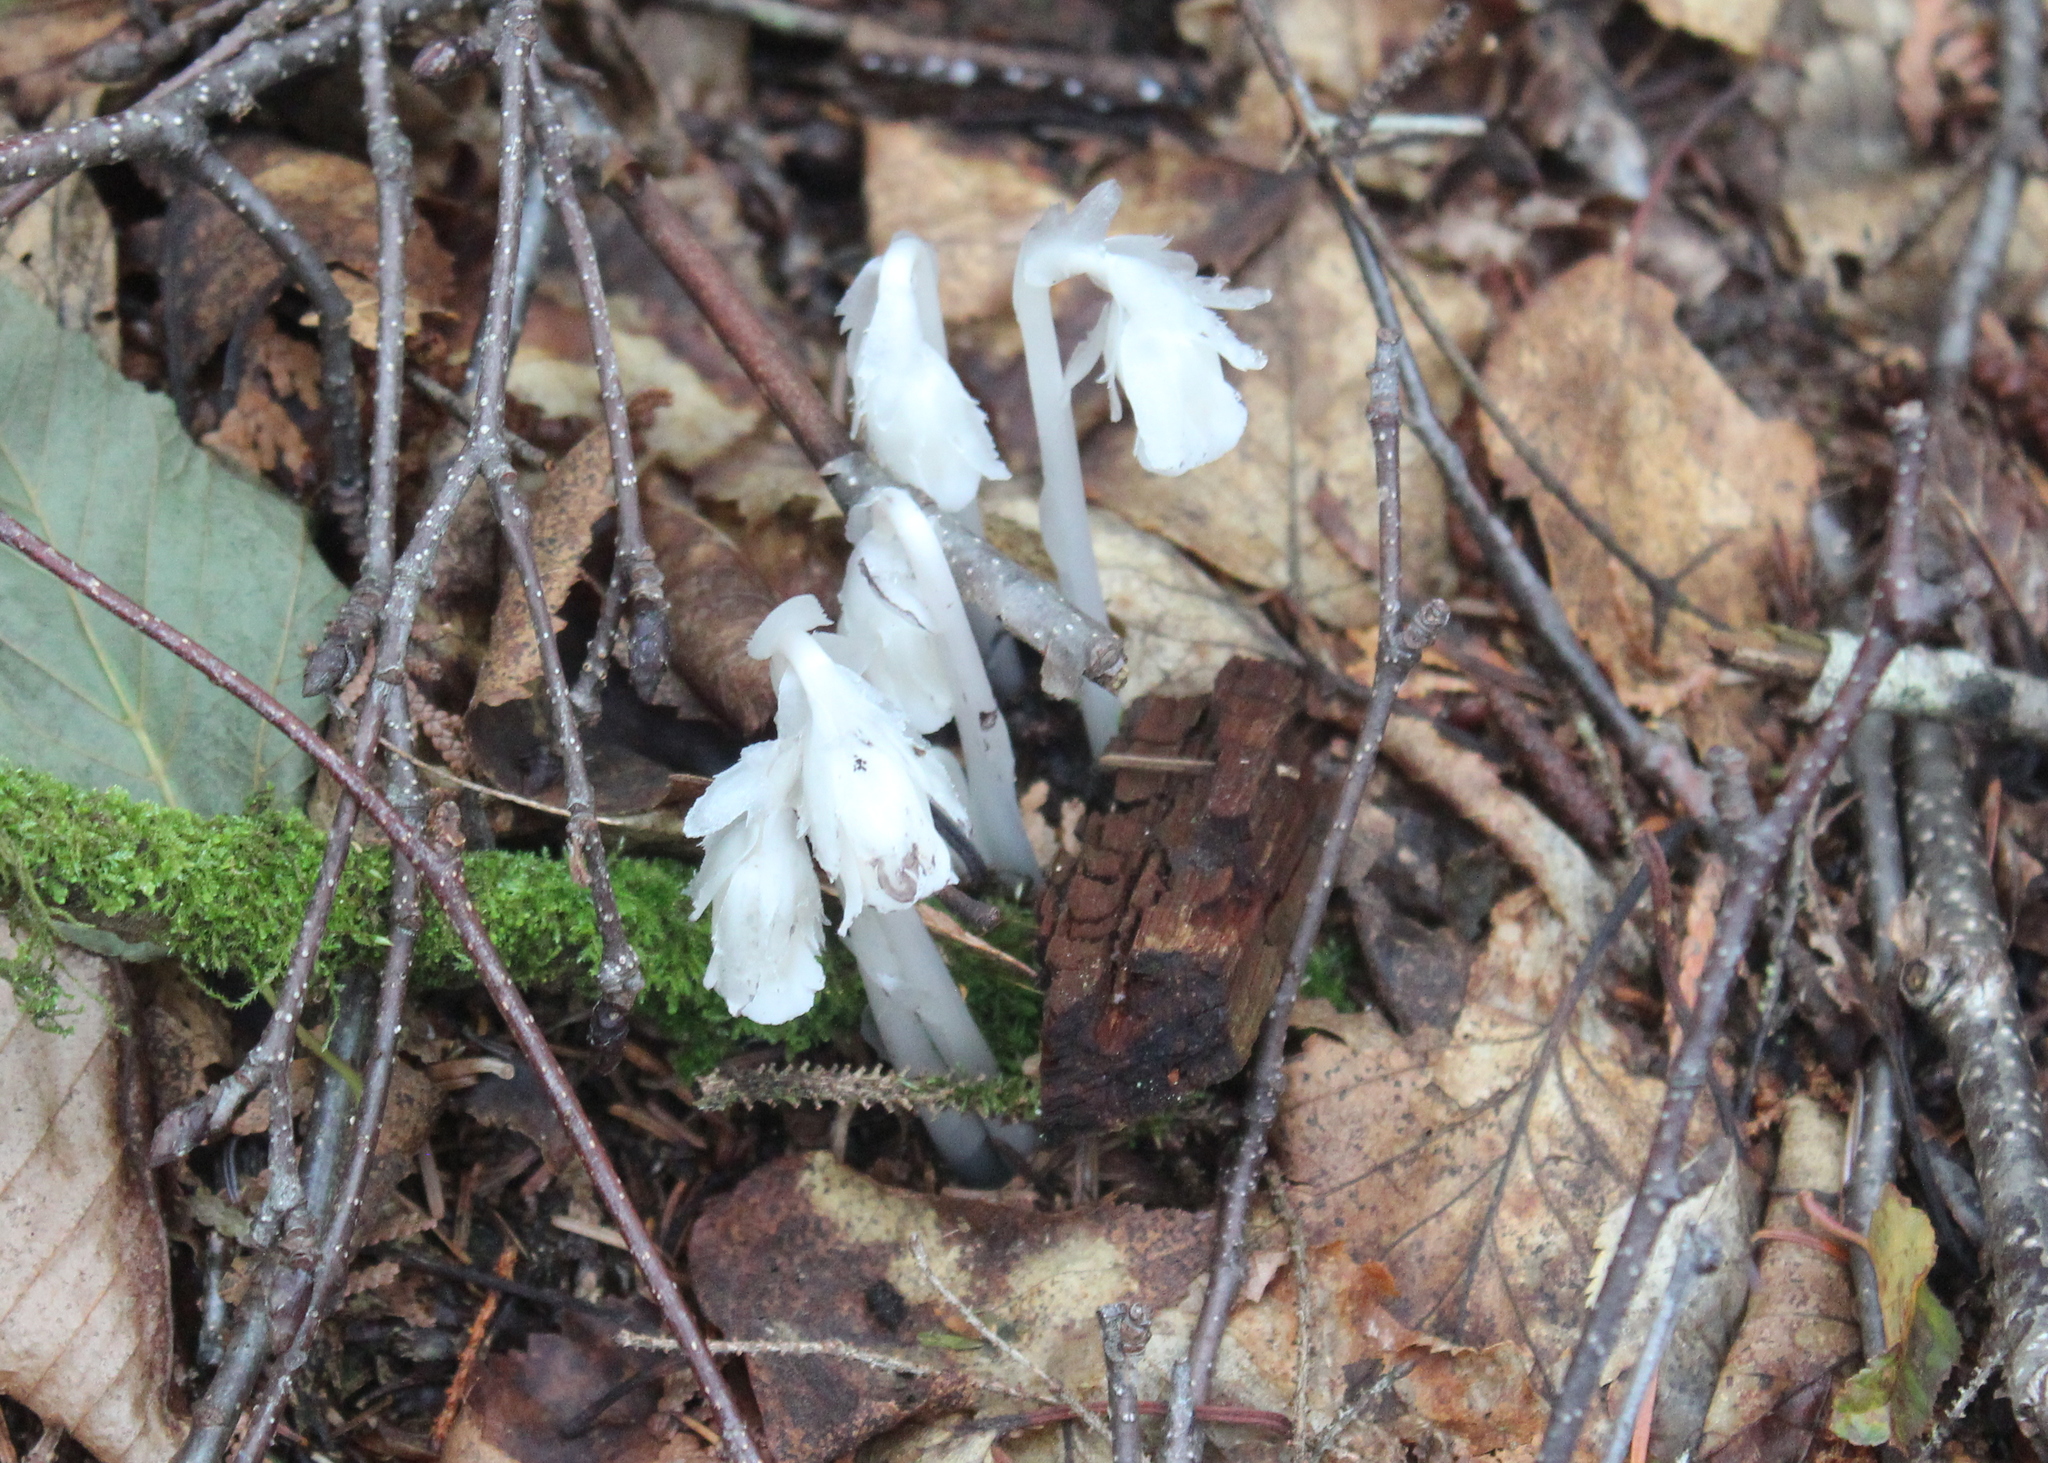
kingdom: Plantae
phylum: Tracheophyta
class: Magnoliopsida
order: Ericales
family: Ericaceae
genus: Monotropa
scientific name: Monotropa uniflora
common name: Convulsion root
